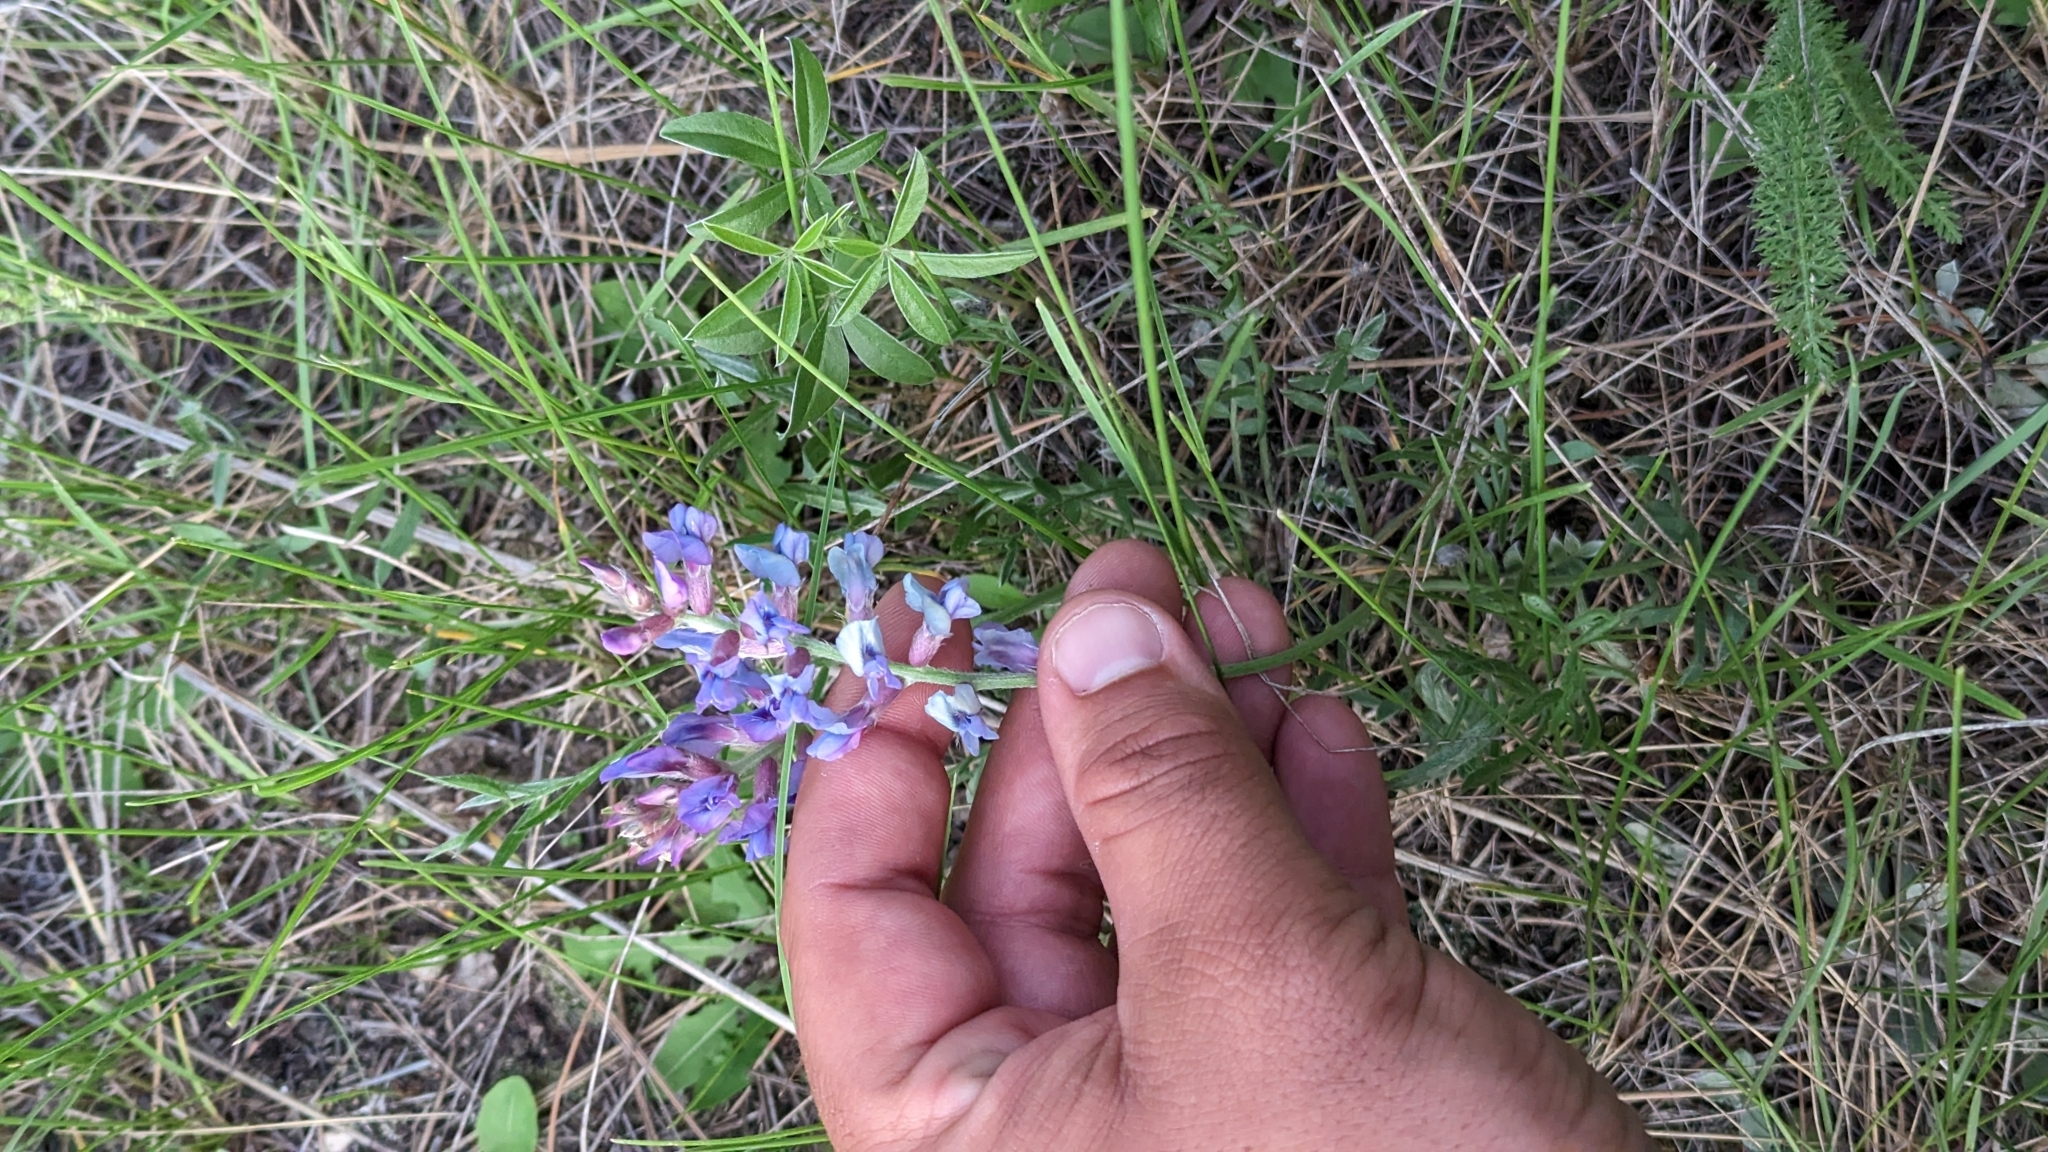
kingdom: Plantae
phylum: Tracheophyta
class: Magnoliopsida
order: Fabales
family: Fabaceae
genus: Oxytropis
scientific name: Oxytropis lambertii
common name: Purple locoweed
